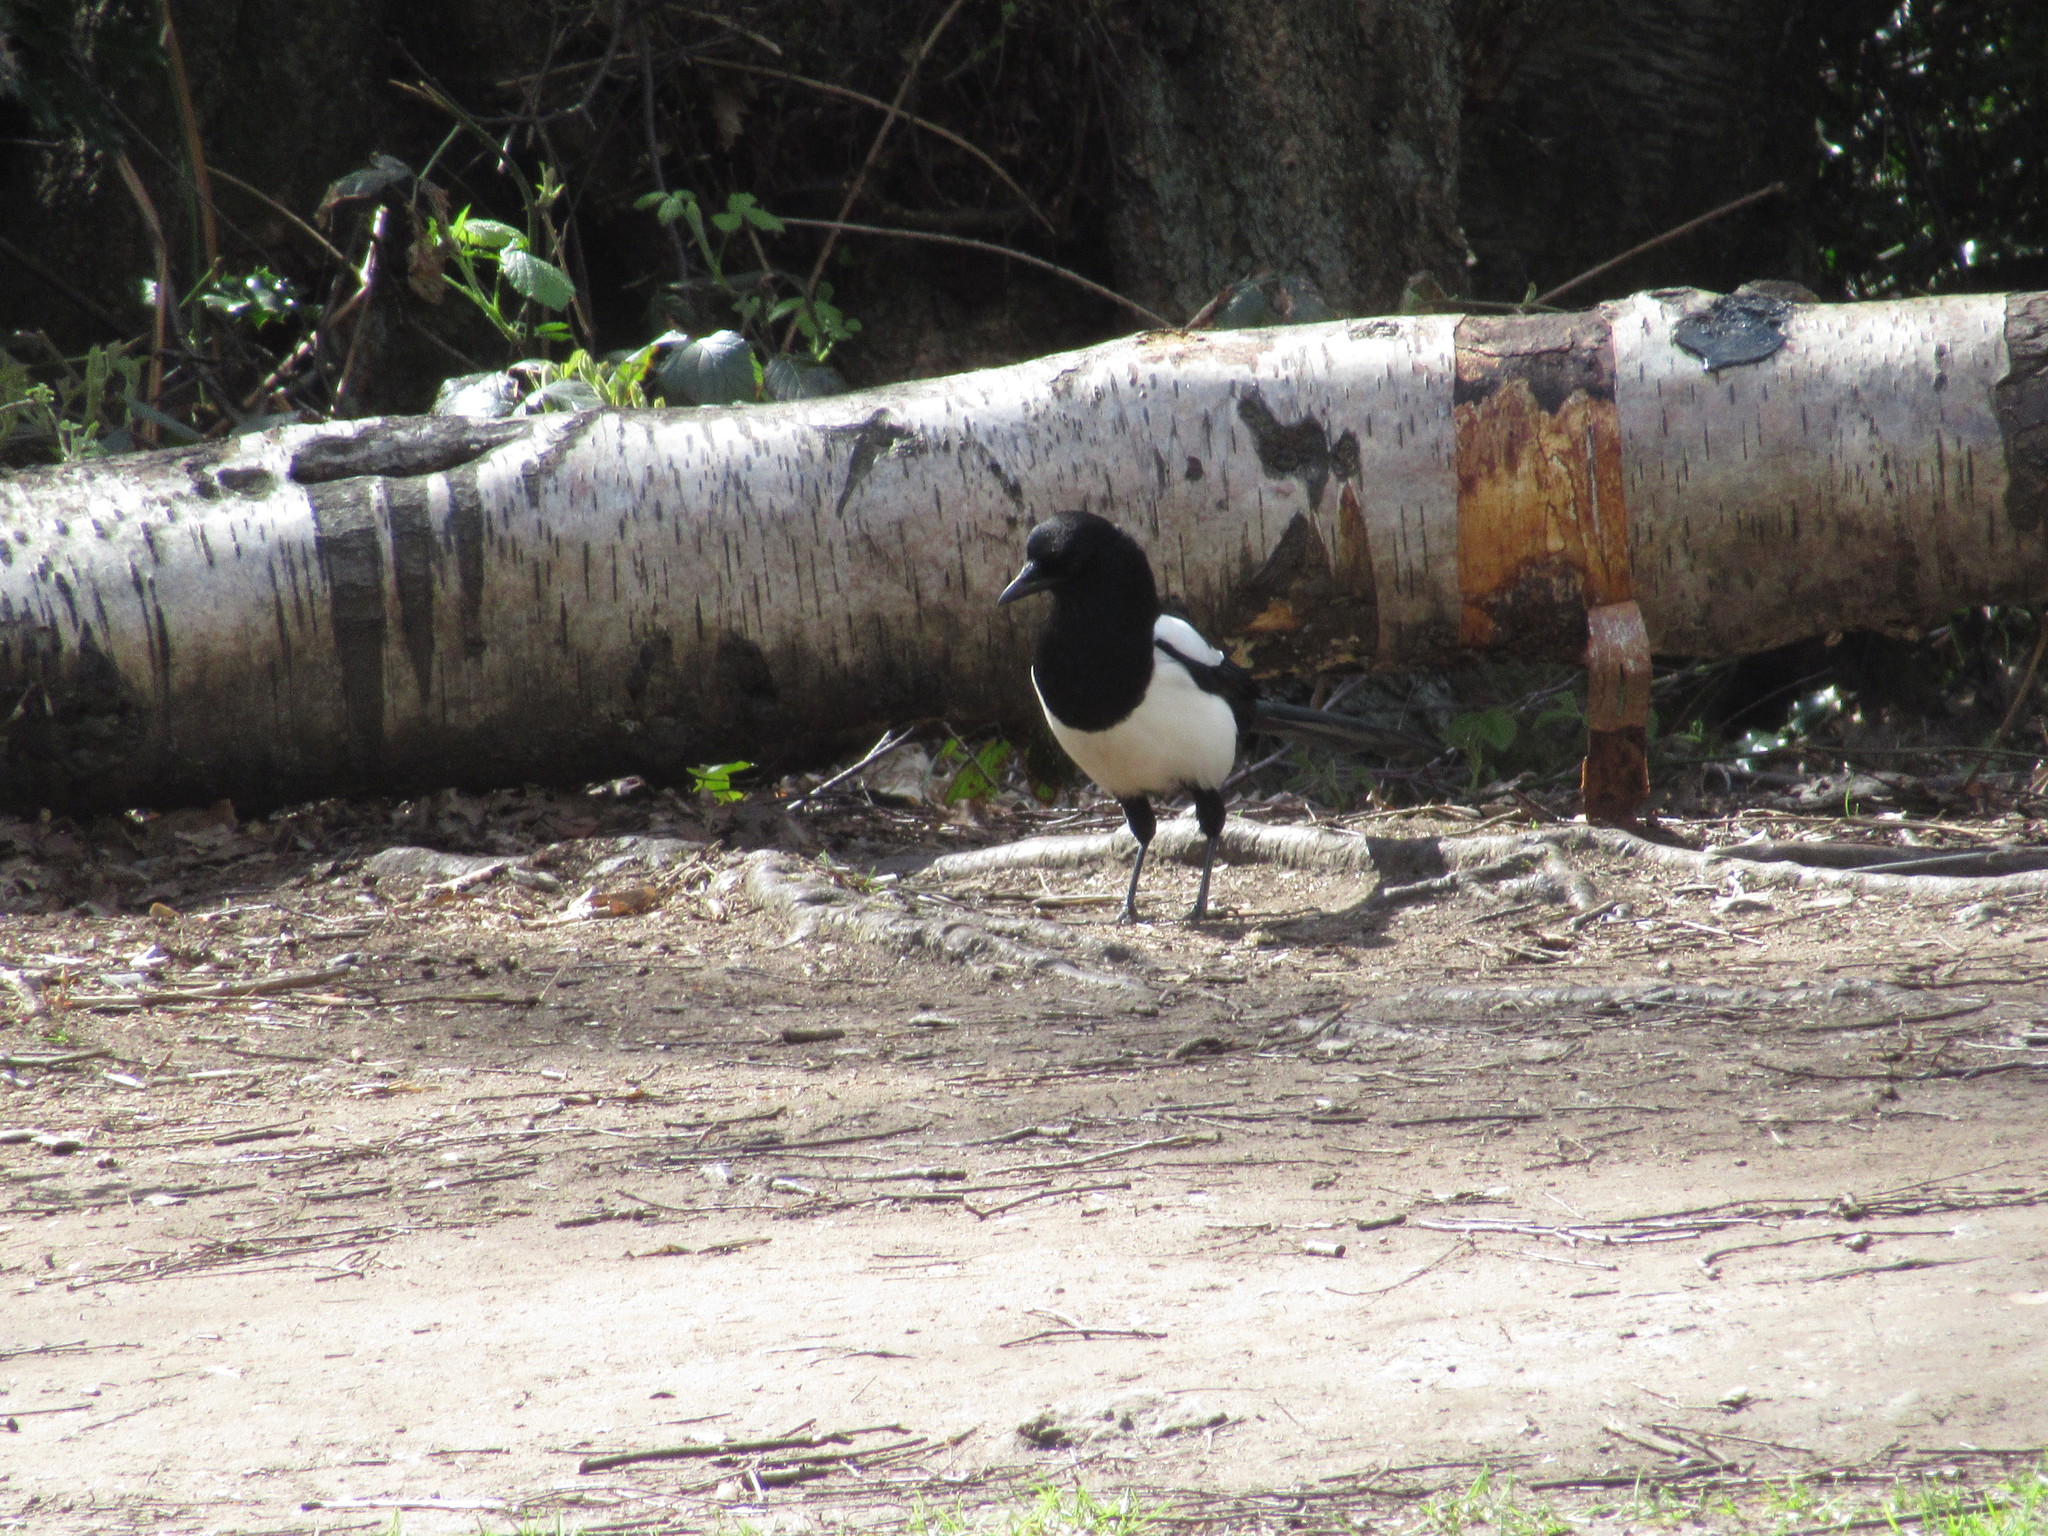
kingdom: Animalia
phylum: Chordata
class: Aves
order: Passeriformes
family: Corvidae
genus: Pica
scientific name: Pica pica
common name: Eurasian magpie
